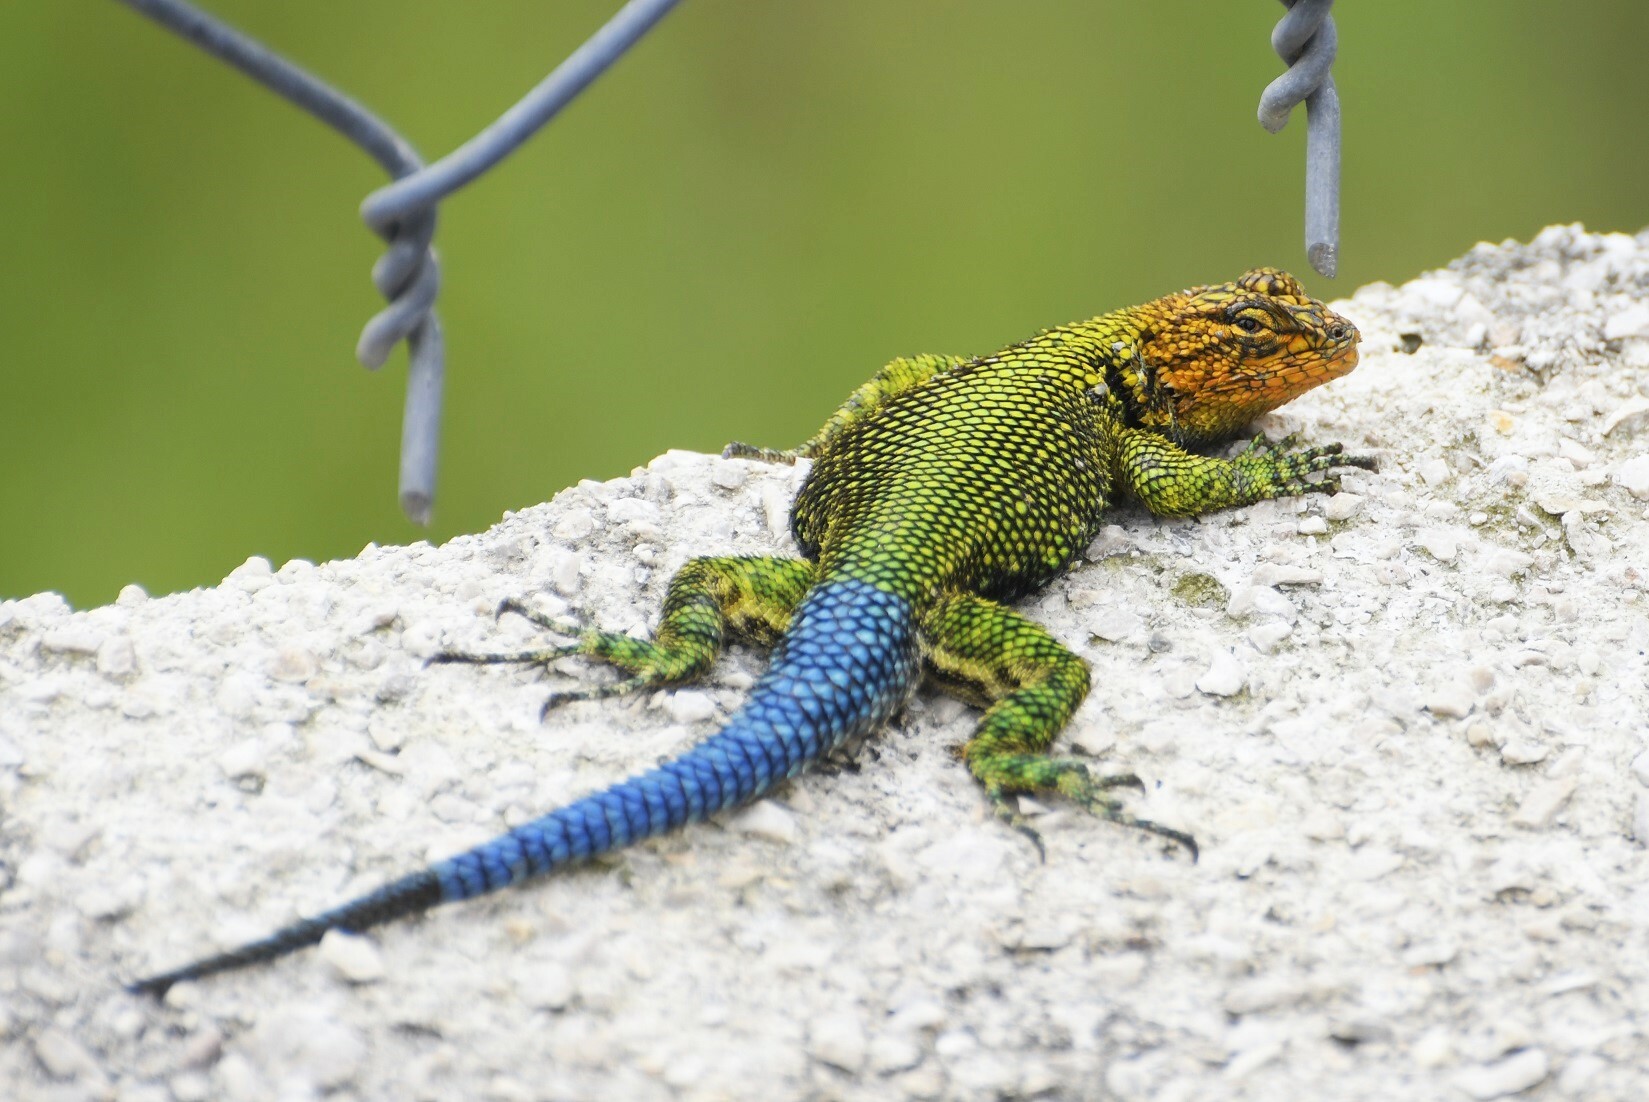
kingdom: Animalia
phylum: Chordata
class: Squamata
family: Phrynosomatidae
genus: Sceloporus
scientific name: Sceloporus taeniocnemis
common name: Guatemalan emerald spiny lizard
